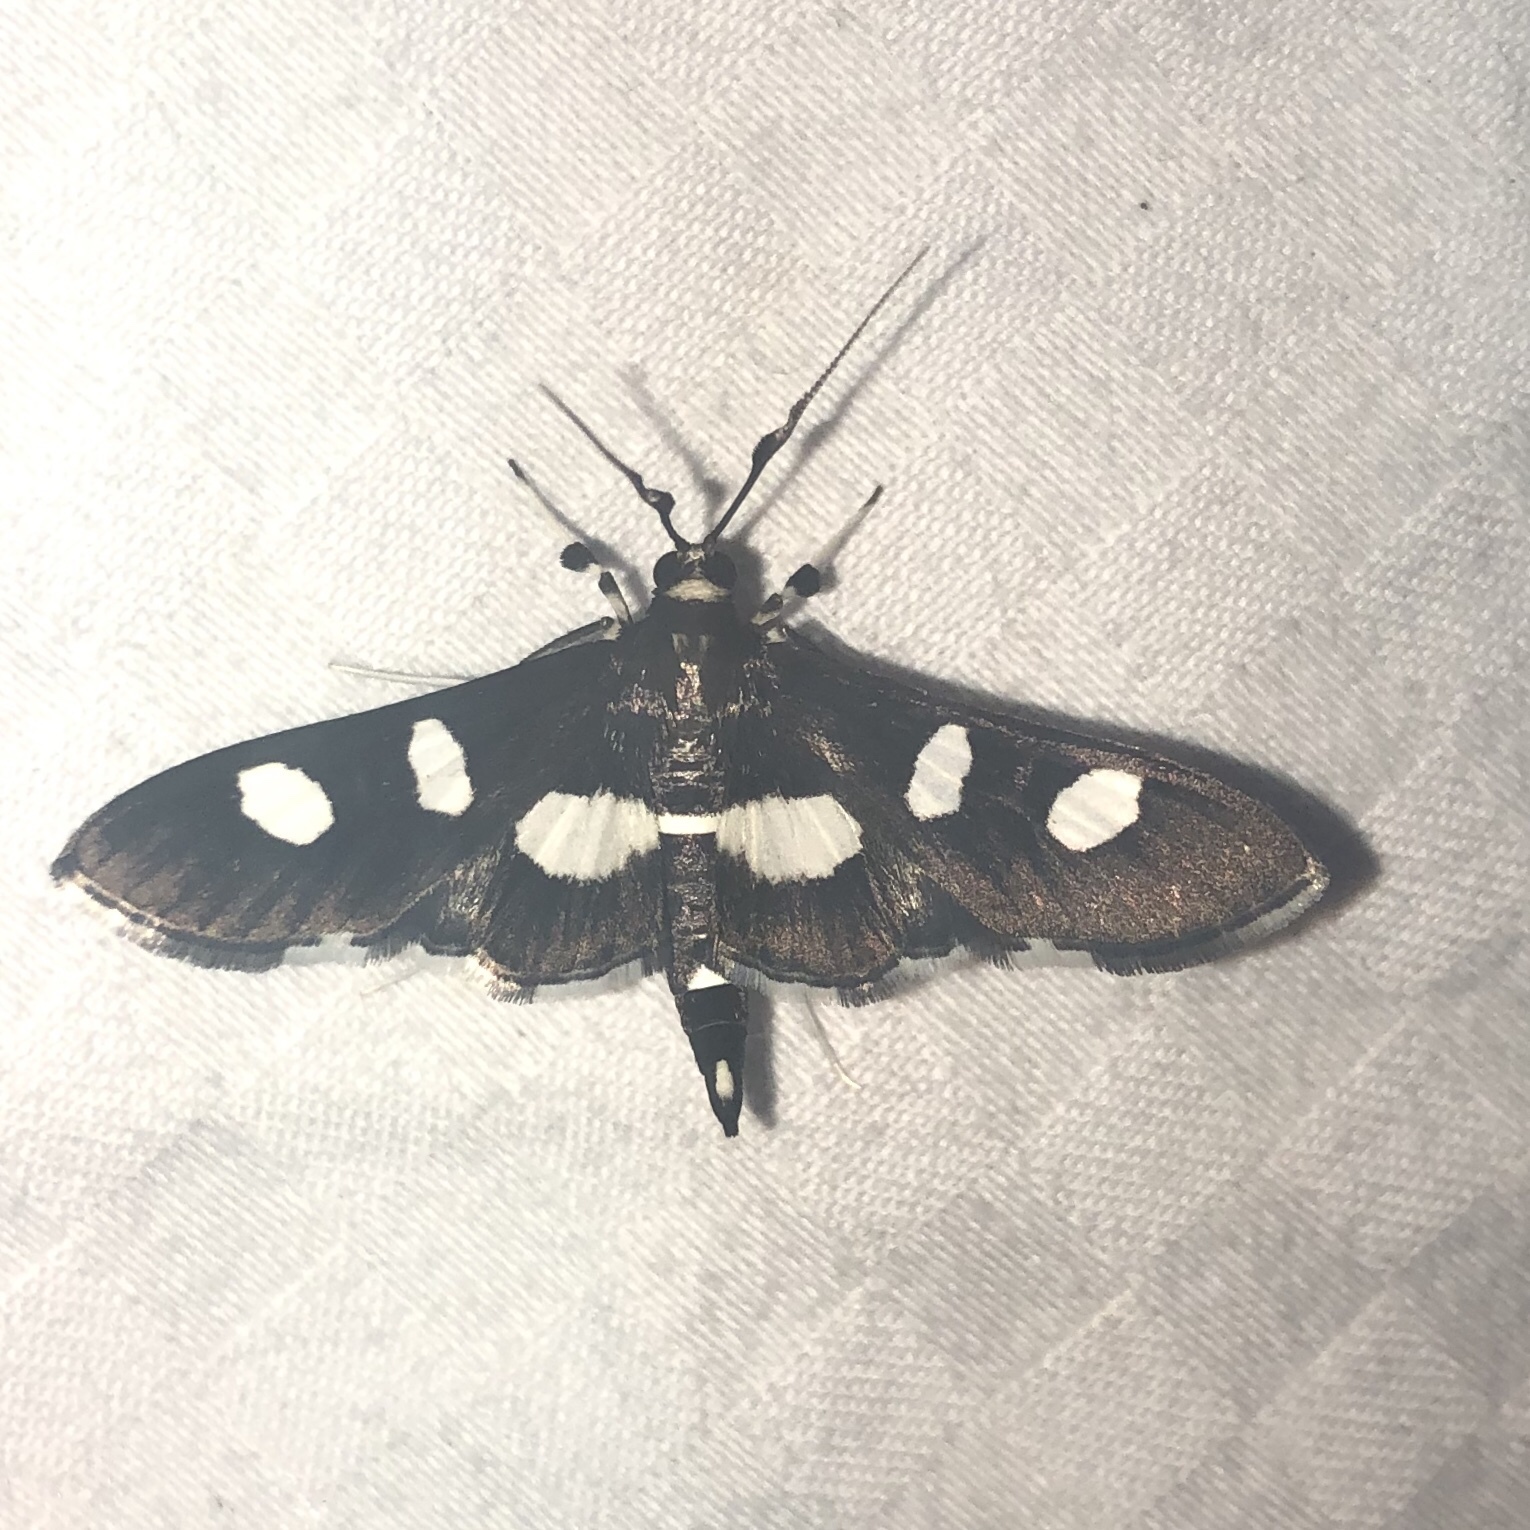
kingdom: Animalia
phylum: Arthropoda
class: Insecta
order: Lepidoptera
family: Crambidae
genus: Desmia
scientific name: Desmia funeralis
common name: Grape leaf folder moth
